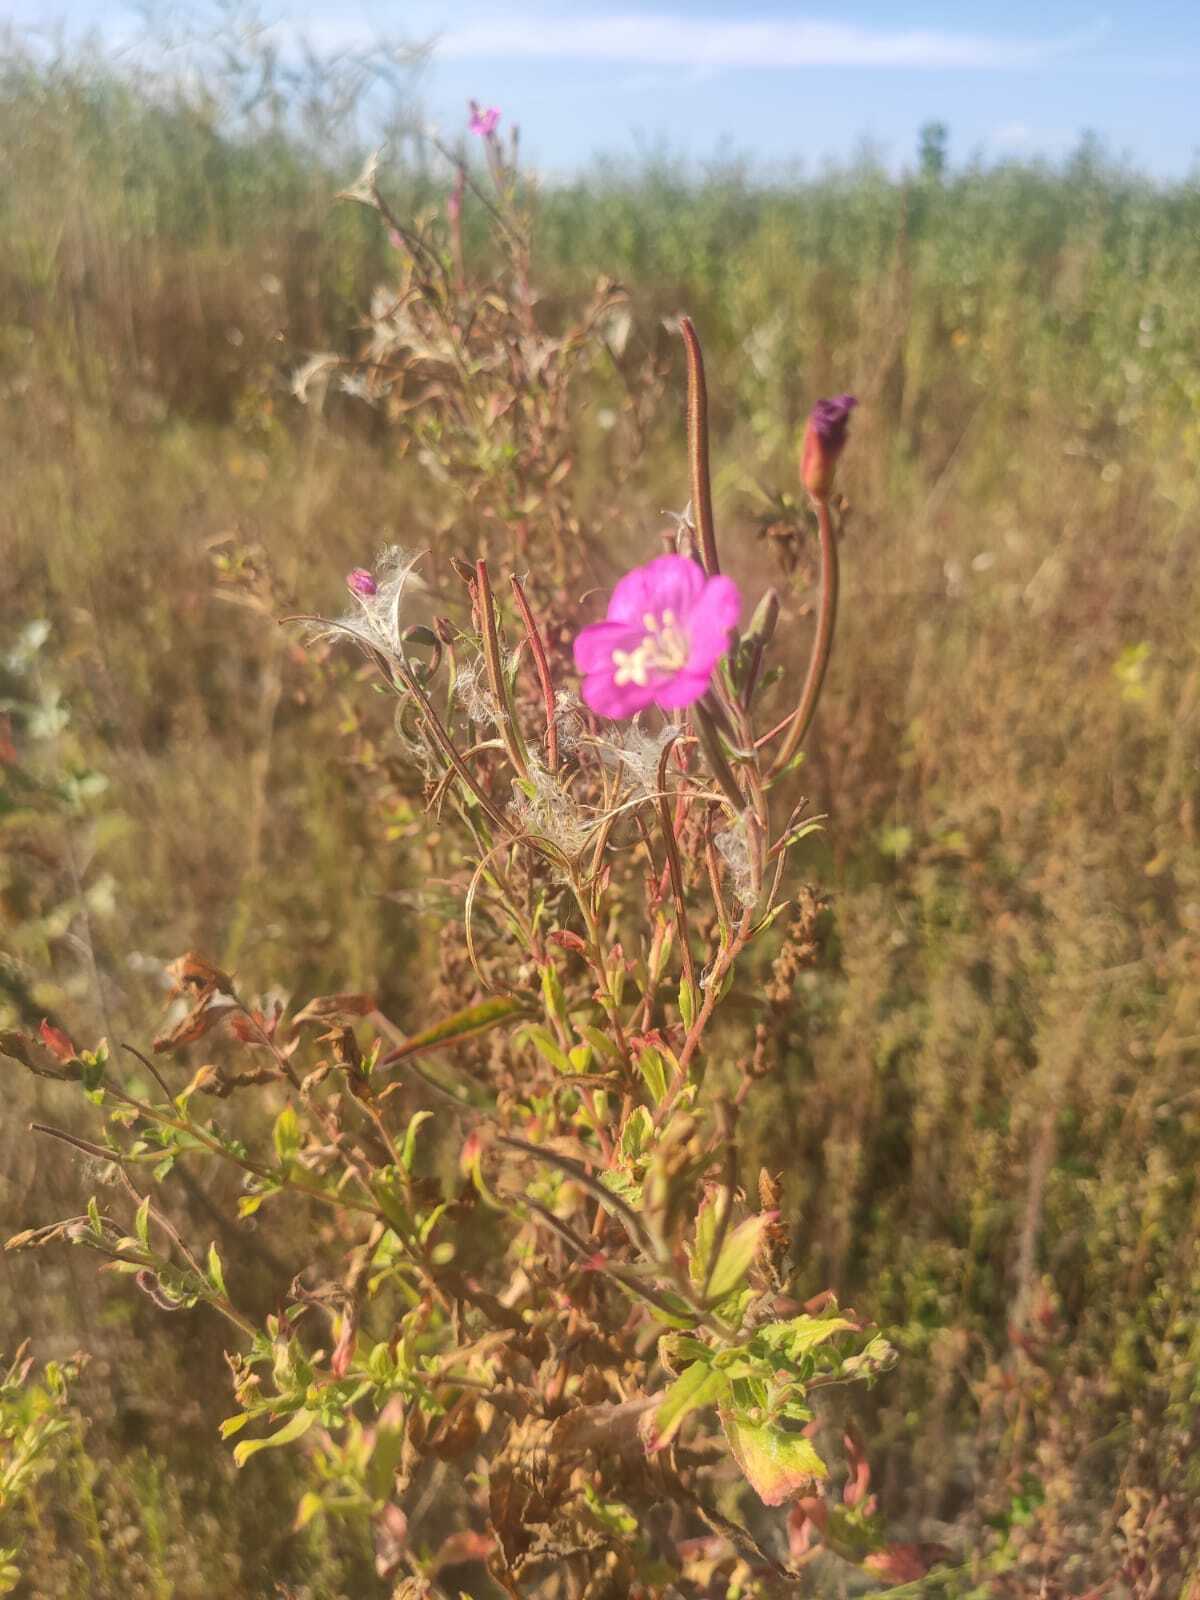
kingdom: Plantae
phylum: Tracheophyta
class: Magnoliopsida
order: Myrtales
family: Onagraceae
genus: Epilobium
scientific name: Epilobium hirsutum
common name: Great willowherb
